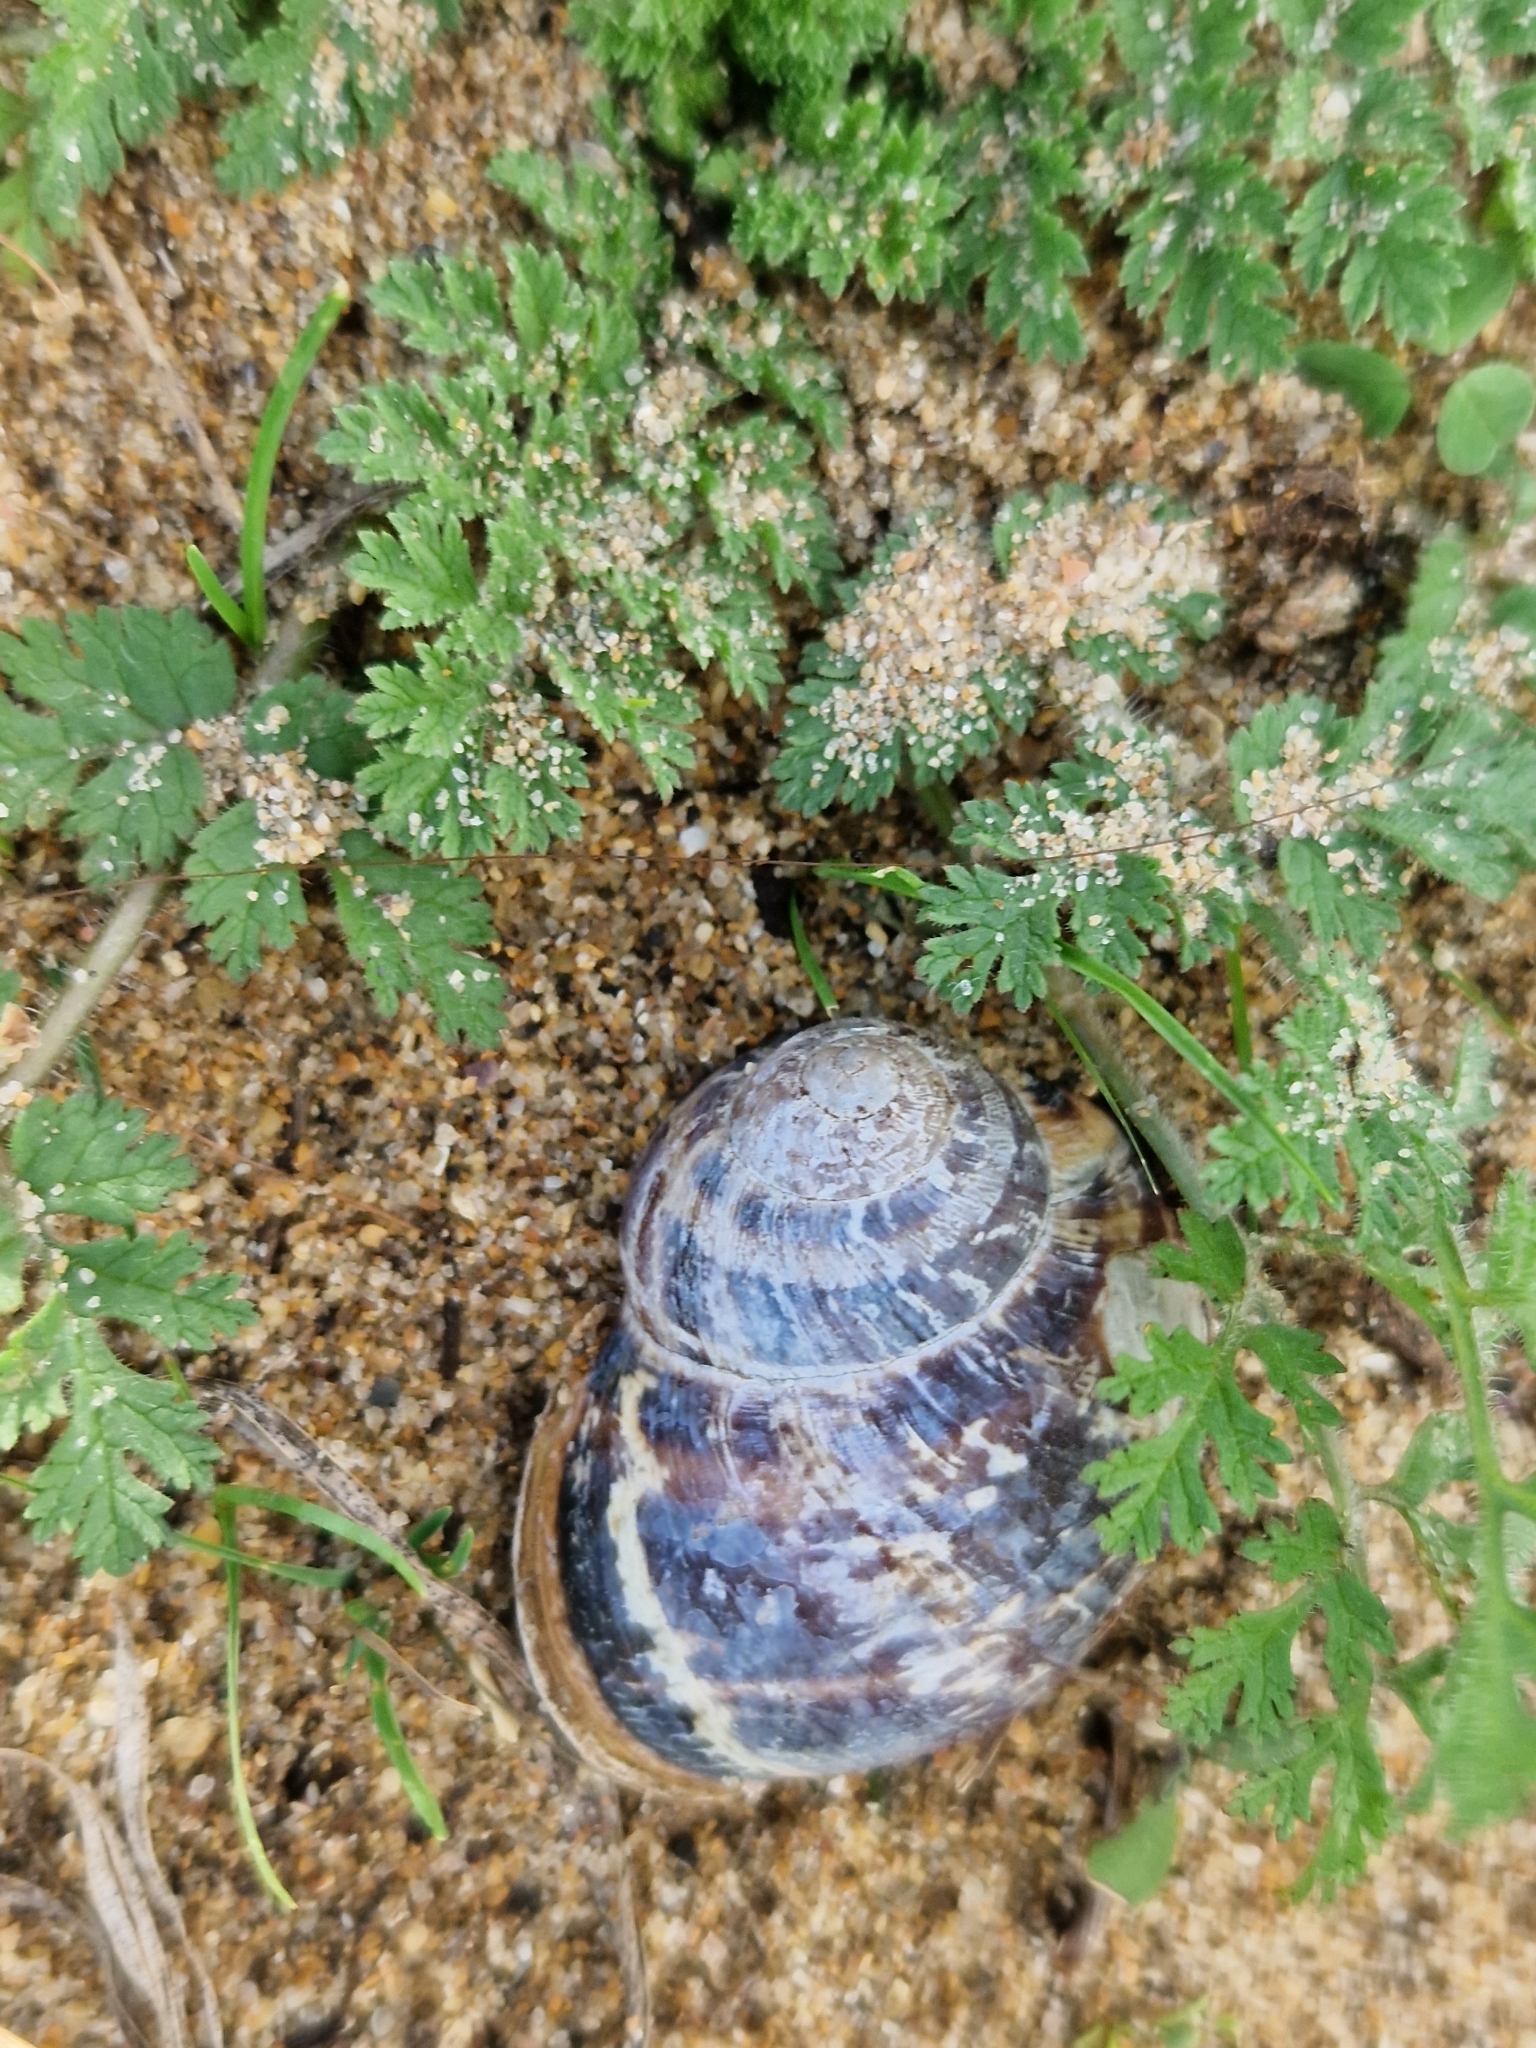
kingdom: Animalia
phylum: Mollusca
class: Gastropoda
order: Stylommatophora
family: Helicidae
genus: Cornu
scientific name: Cornu aspersum
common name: Brown garden snail
